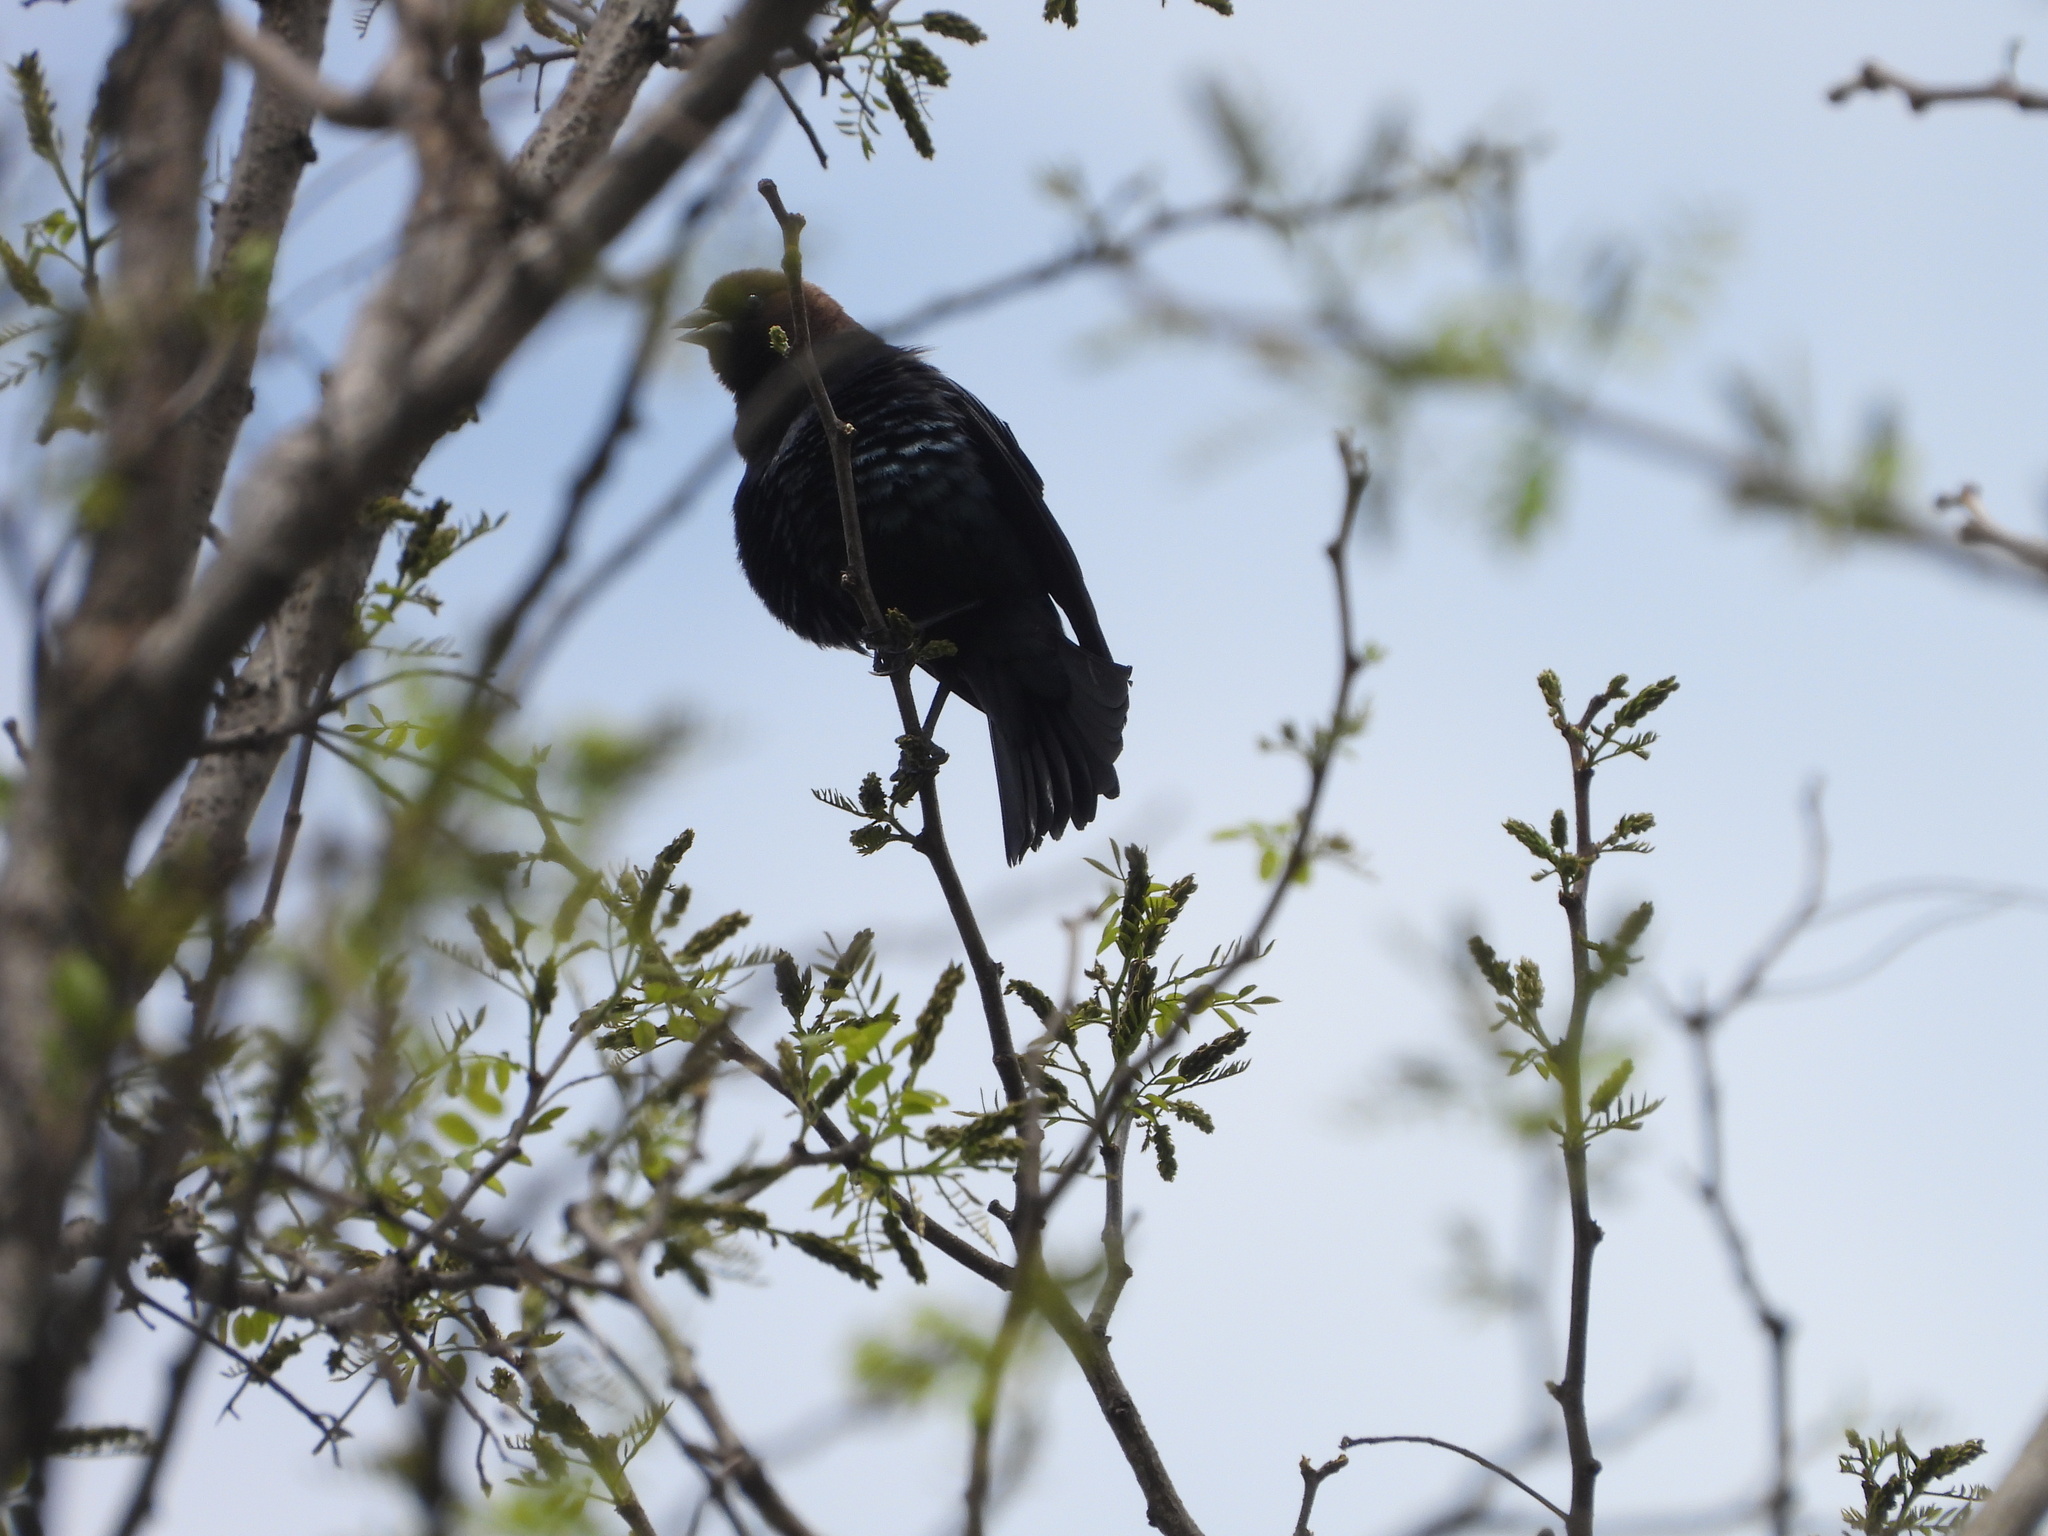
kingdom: Animalia
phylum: Chordata
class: Aves
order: Passeriformes
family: Icteridae
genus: Molothrus
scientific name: Molothrus ater
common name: Brown-headed cowbird
